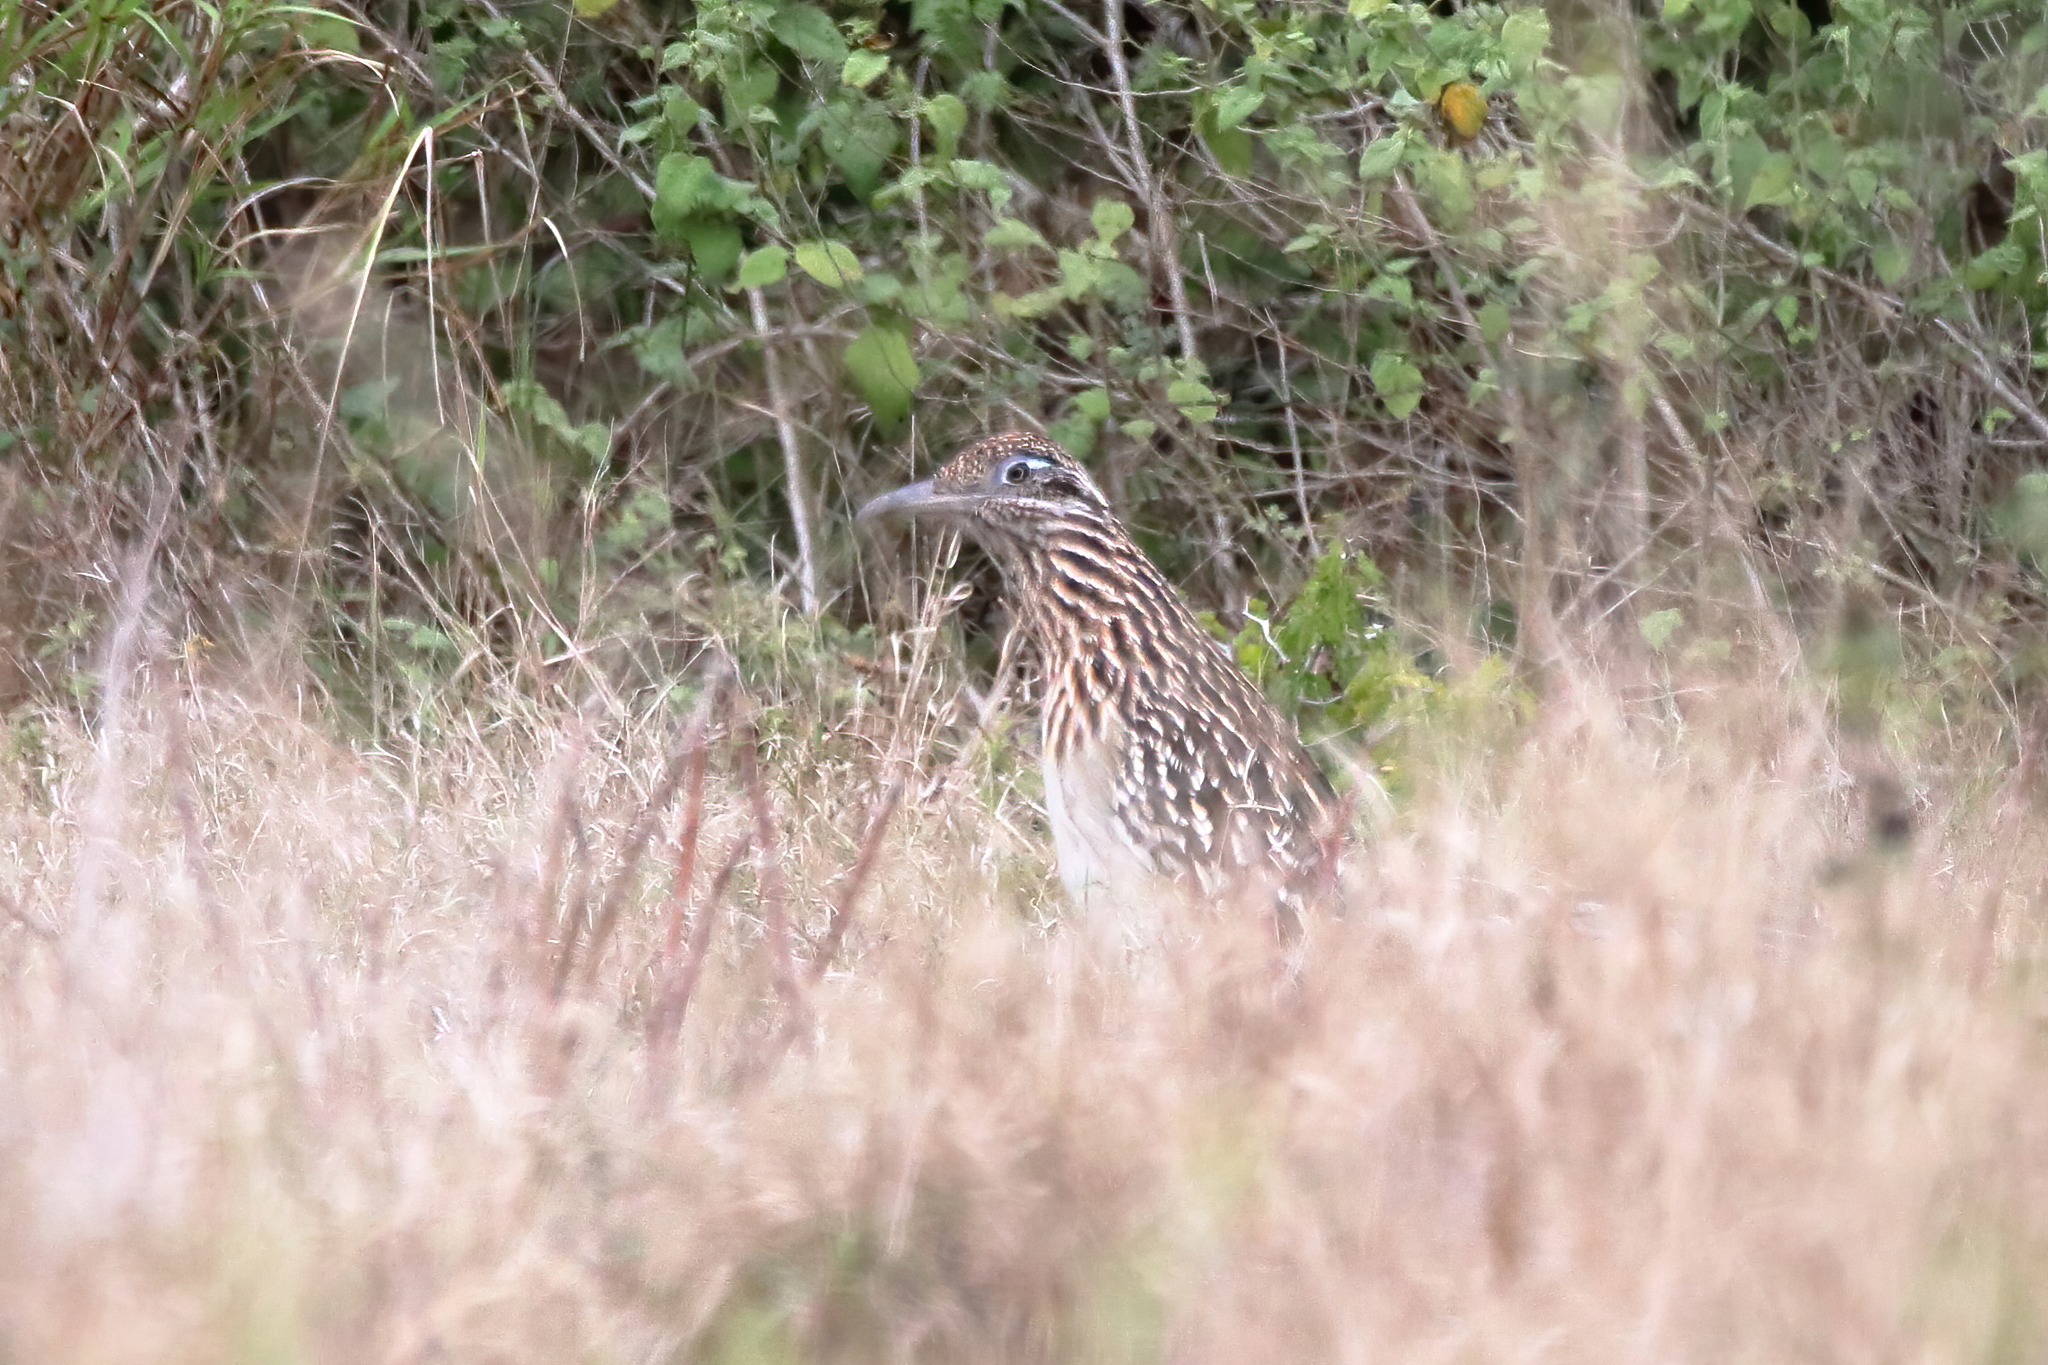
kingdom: Animalia
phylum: Chordata
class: Aves
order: Cuculiformes
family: Cuculidae
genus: Geococcyx
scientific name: Geococcyx californianus
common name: Greater roadrunner
